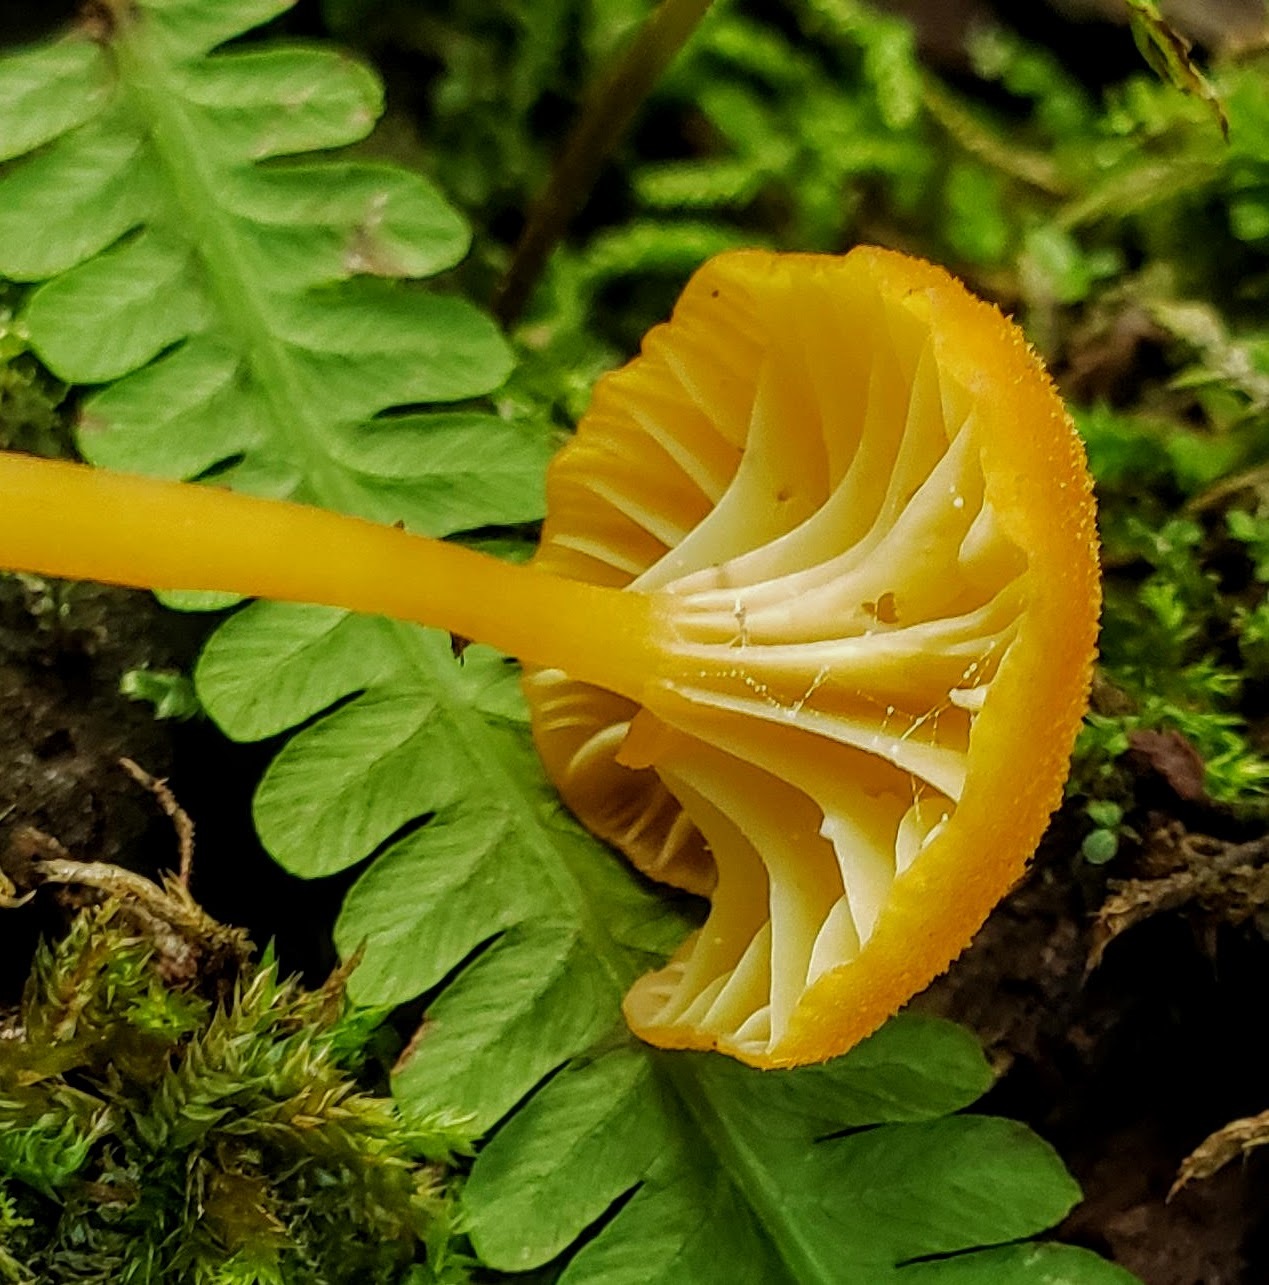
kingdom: Fungi
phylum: Basidiomycota
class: Agaricomycetes
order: Agaricales
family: Hygrophoraceae
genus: Hygrocybe
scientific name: Hygrocybe cantharellus
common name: Goblet waxcap
